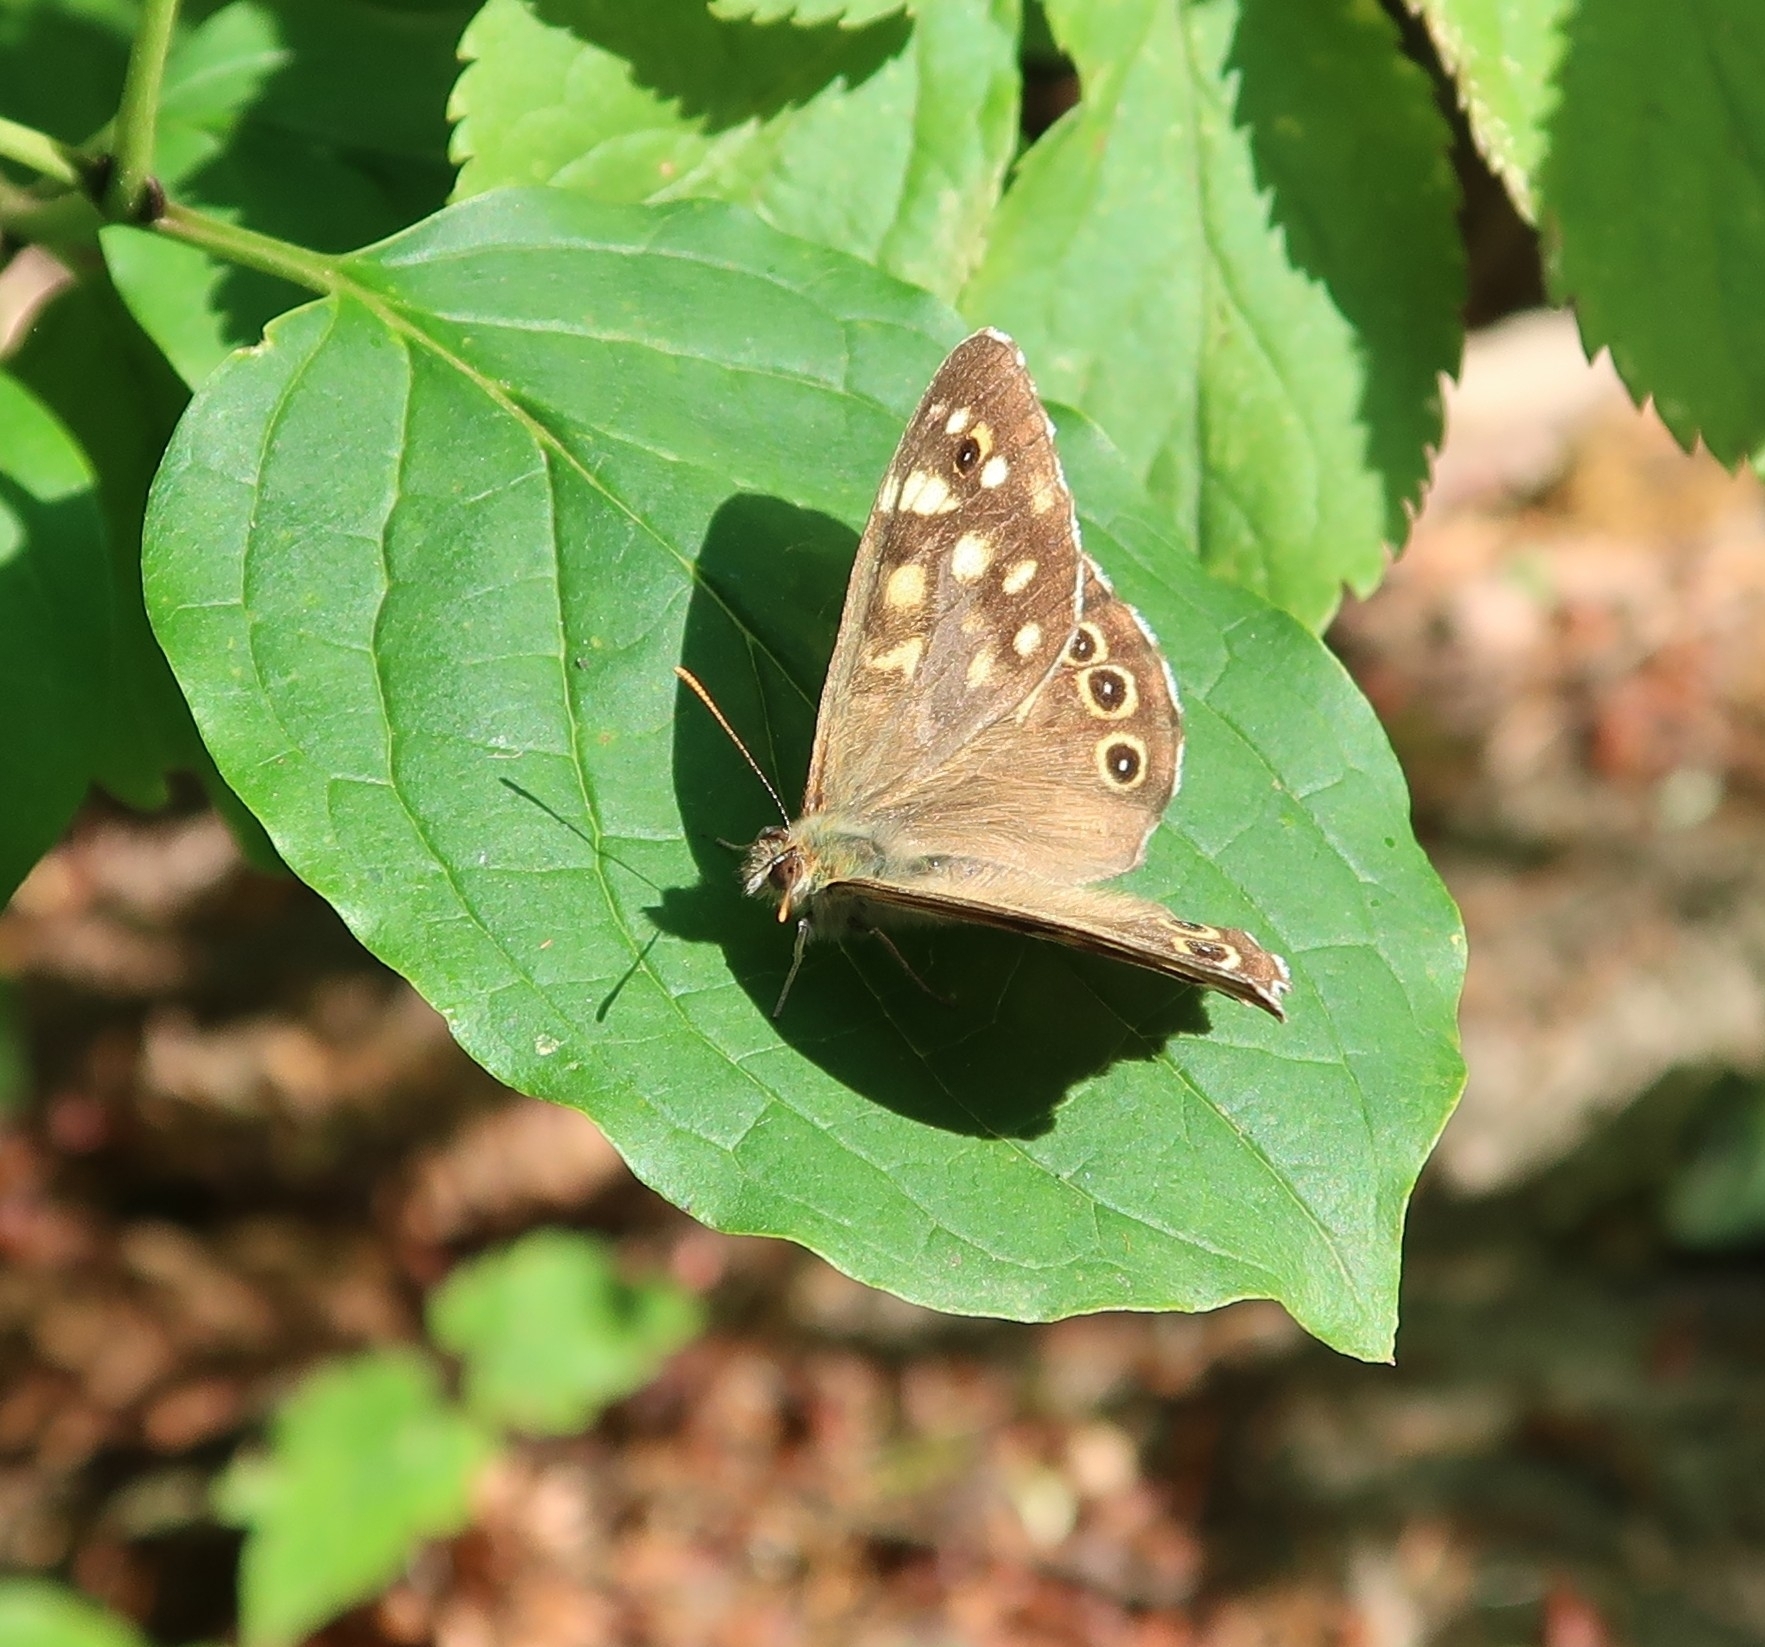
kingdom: Animalia
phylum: Arthropoda
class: Insecta
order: Lepidoptera
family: Nymphalidae
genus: Pararge
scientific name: Pararge aegeria
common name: Speckled wood
